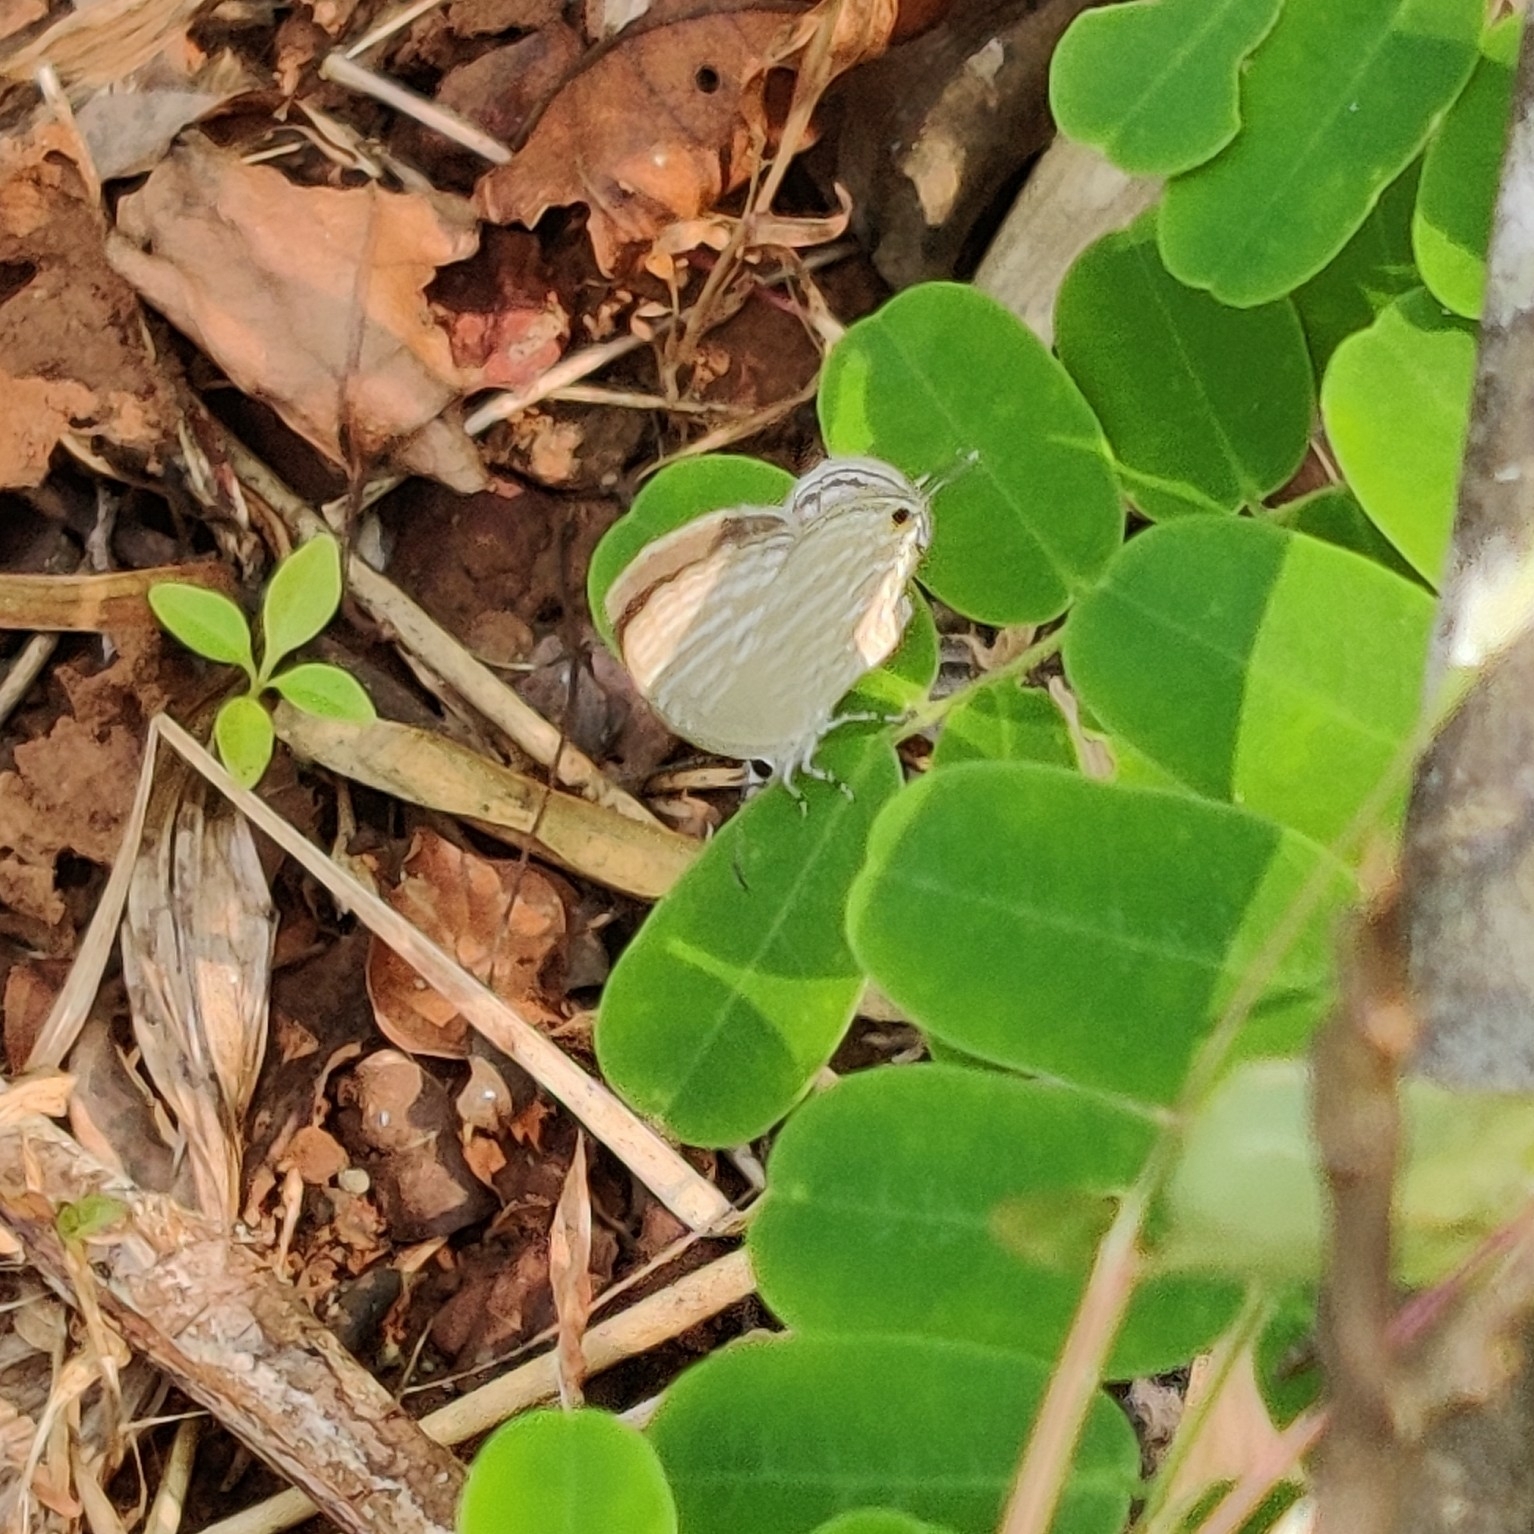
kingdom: Animalia
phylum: Arthropoda
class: Insecta
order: Lepidoptera
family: Lycaenidae
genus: Jamides
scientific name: Jamides celeno
